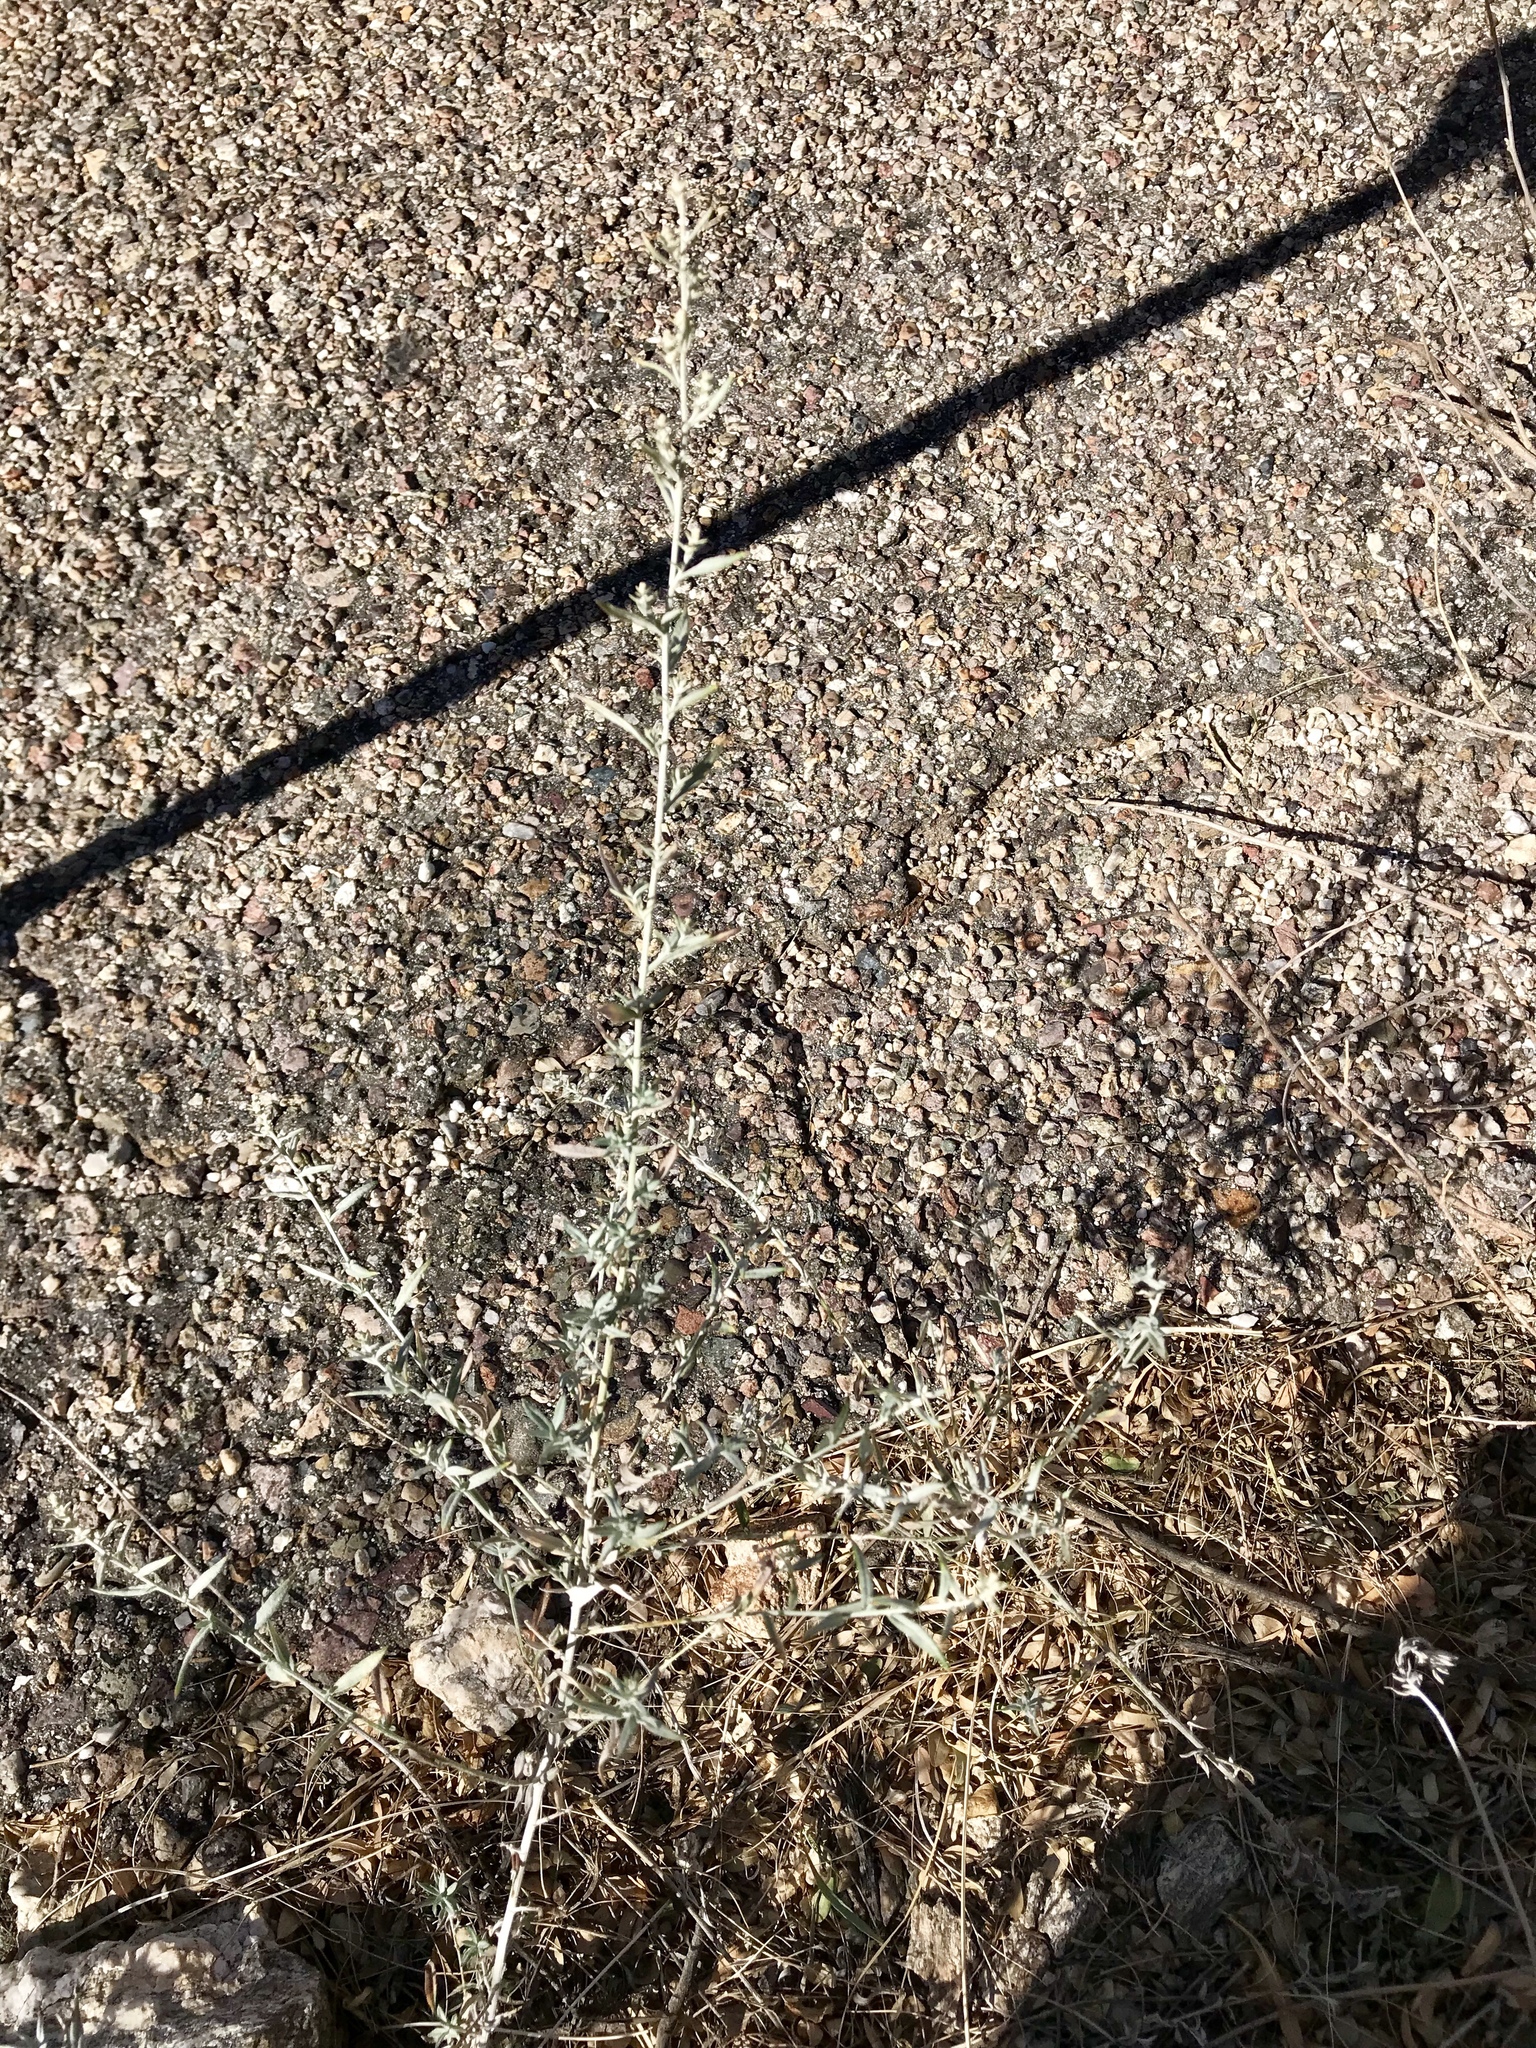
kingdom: Plantae
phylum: Tracheophyta
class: Magnoliopsida
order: Asterales
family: Asteraceae
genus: Artemisia
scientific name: Artemisia ludoviciana
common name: Western mugwort
